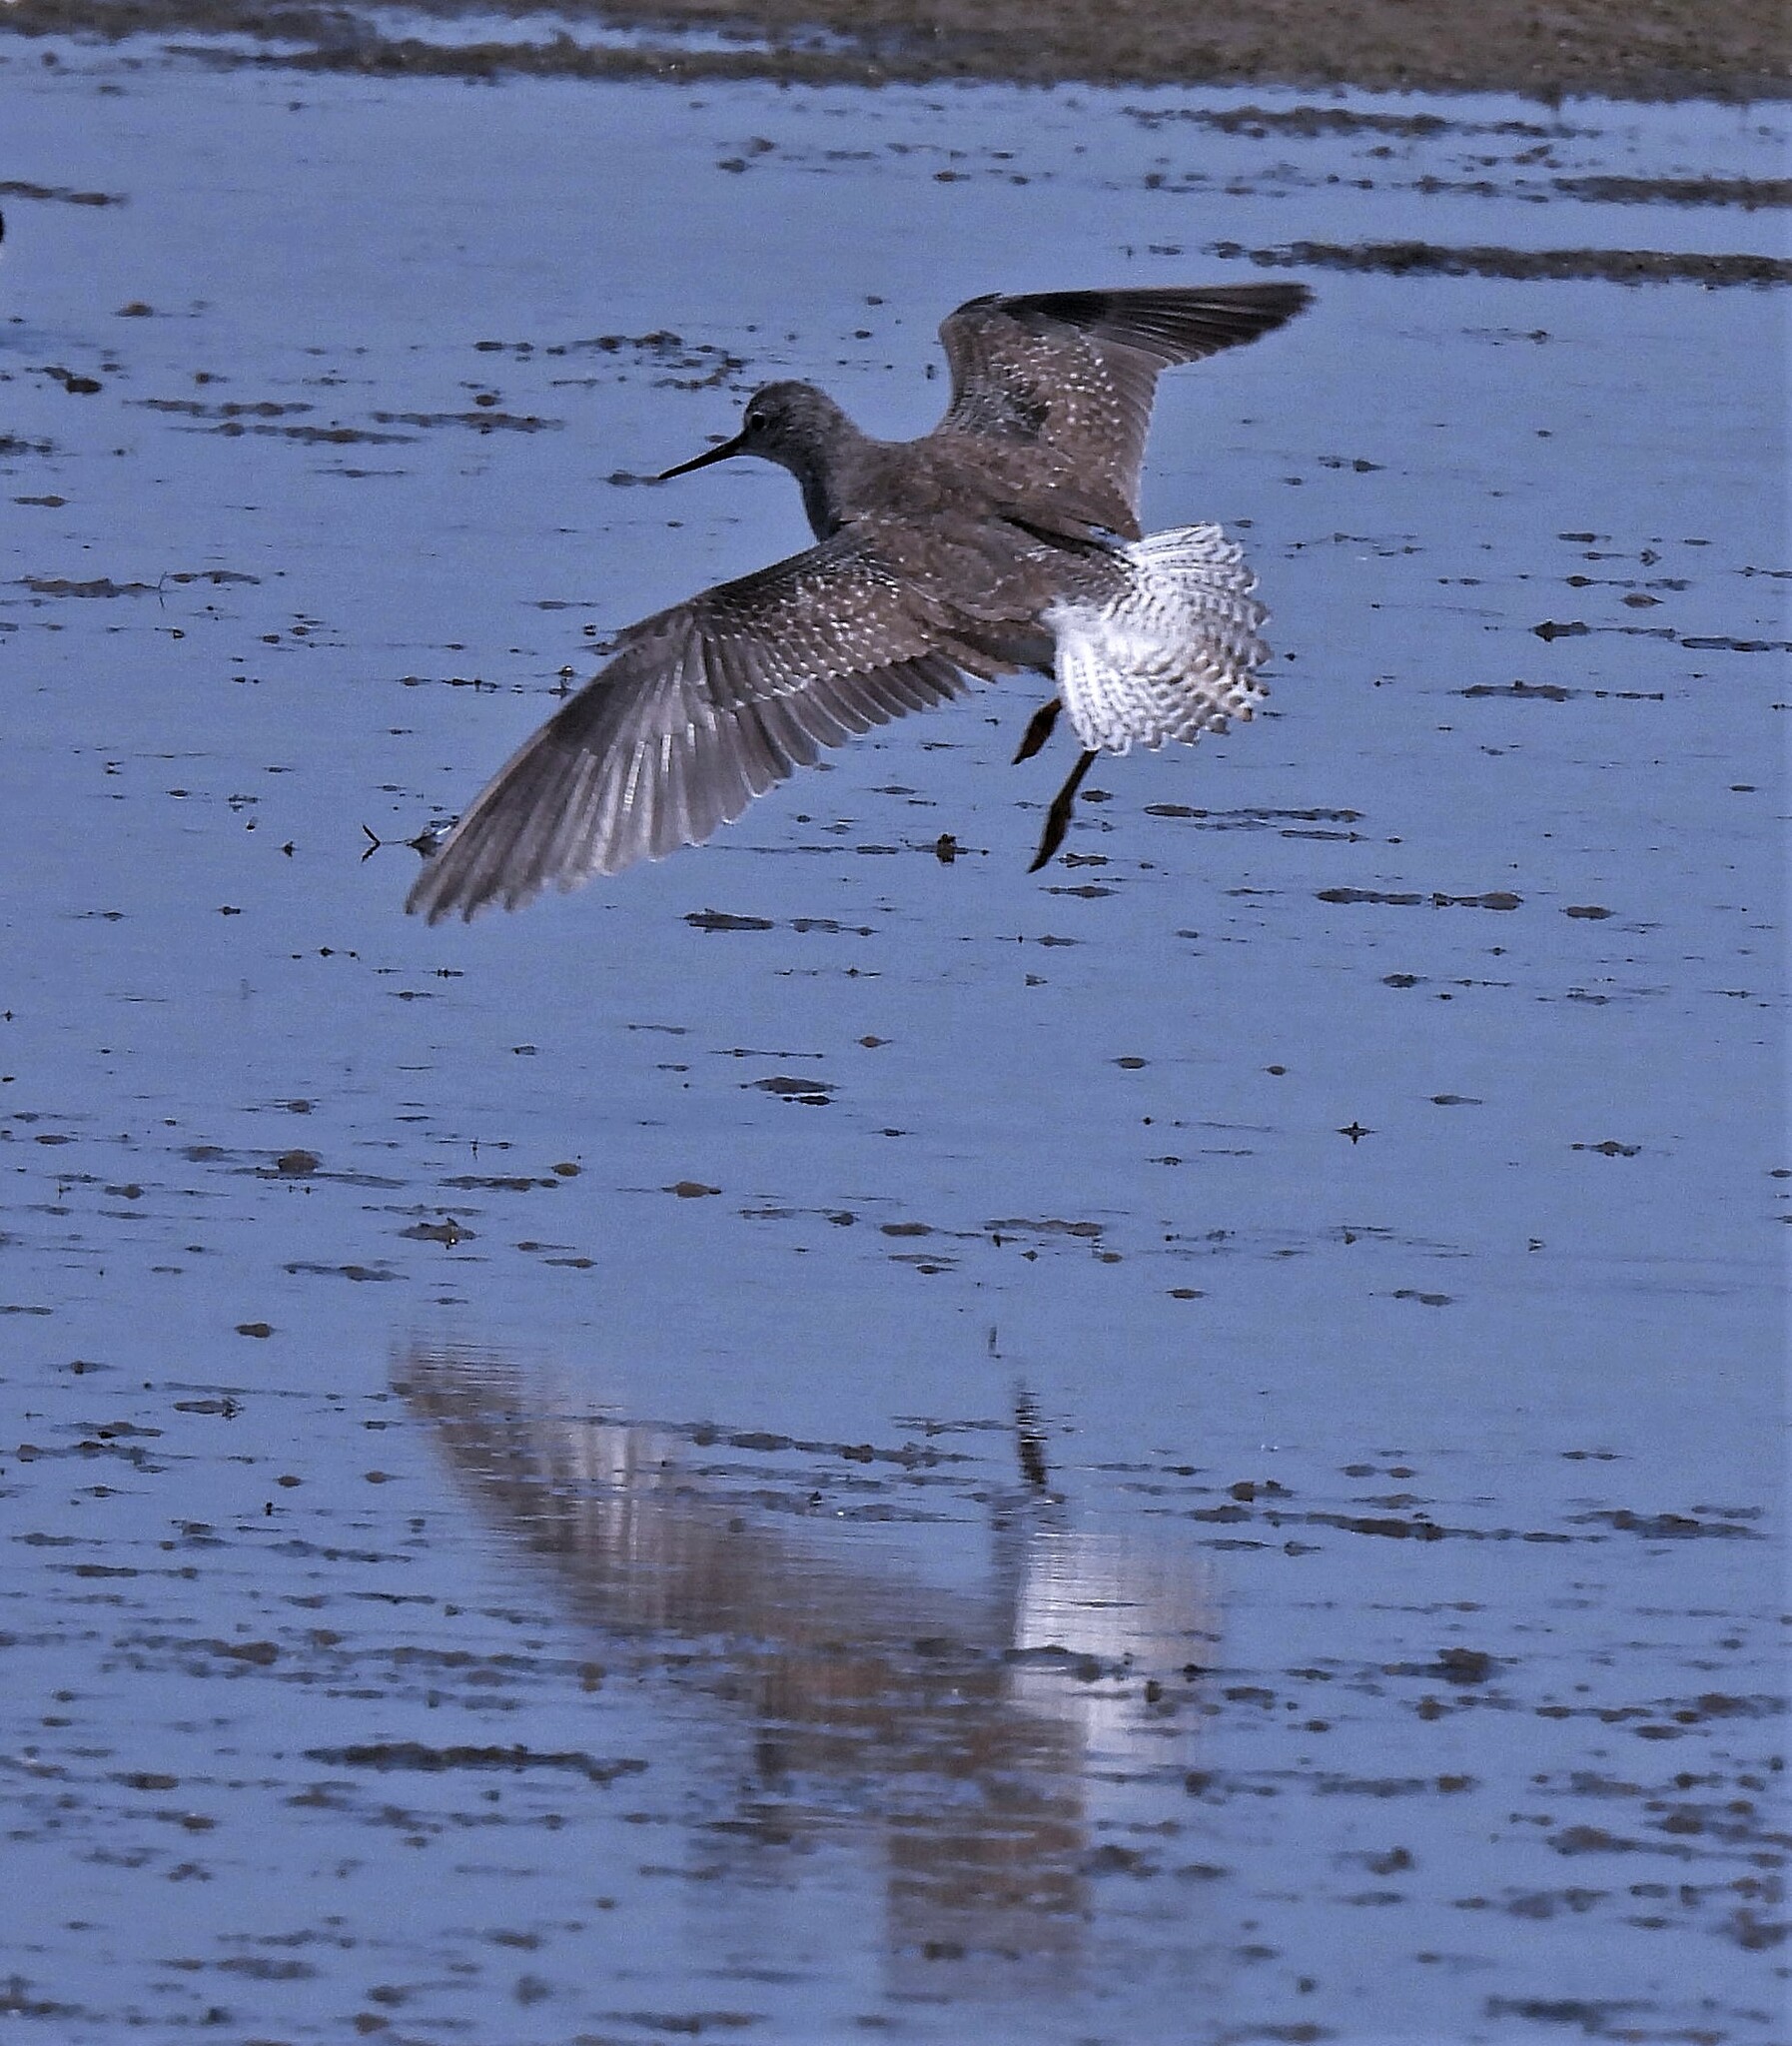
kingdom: Animalia
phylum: Chordata
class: Aves
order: Charadriiformes
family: Scolopacidae
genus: Tringa
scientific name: Tringa melanoleuca
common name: Greater yellowlegs
